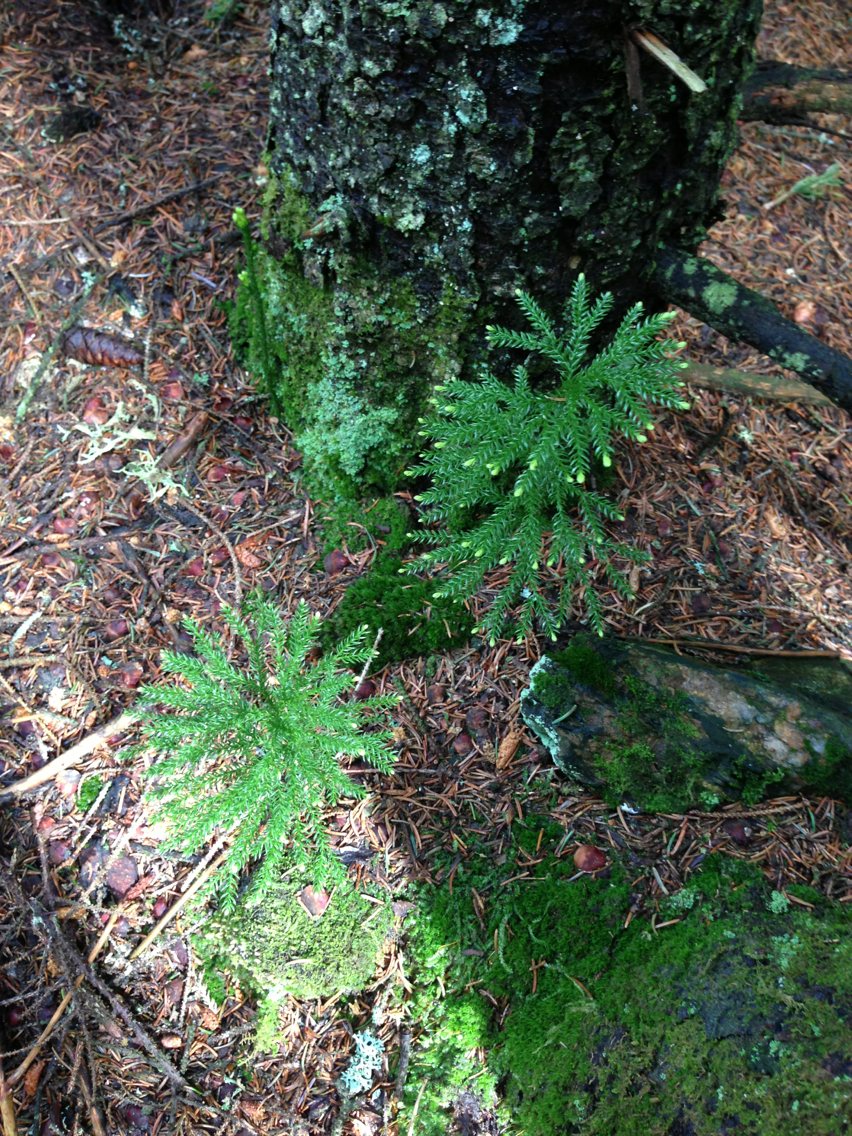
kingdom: Plantae
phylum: Tracheophyta
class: Lycopodiopsida
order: Lycopodiales
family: Lycopodiaceae
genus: Dendrolycopodium
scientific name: Dendrolycopodium obscurum
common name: Common ground-pine
